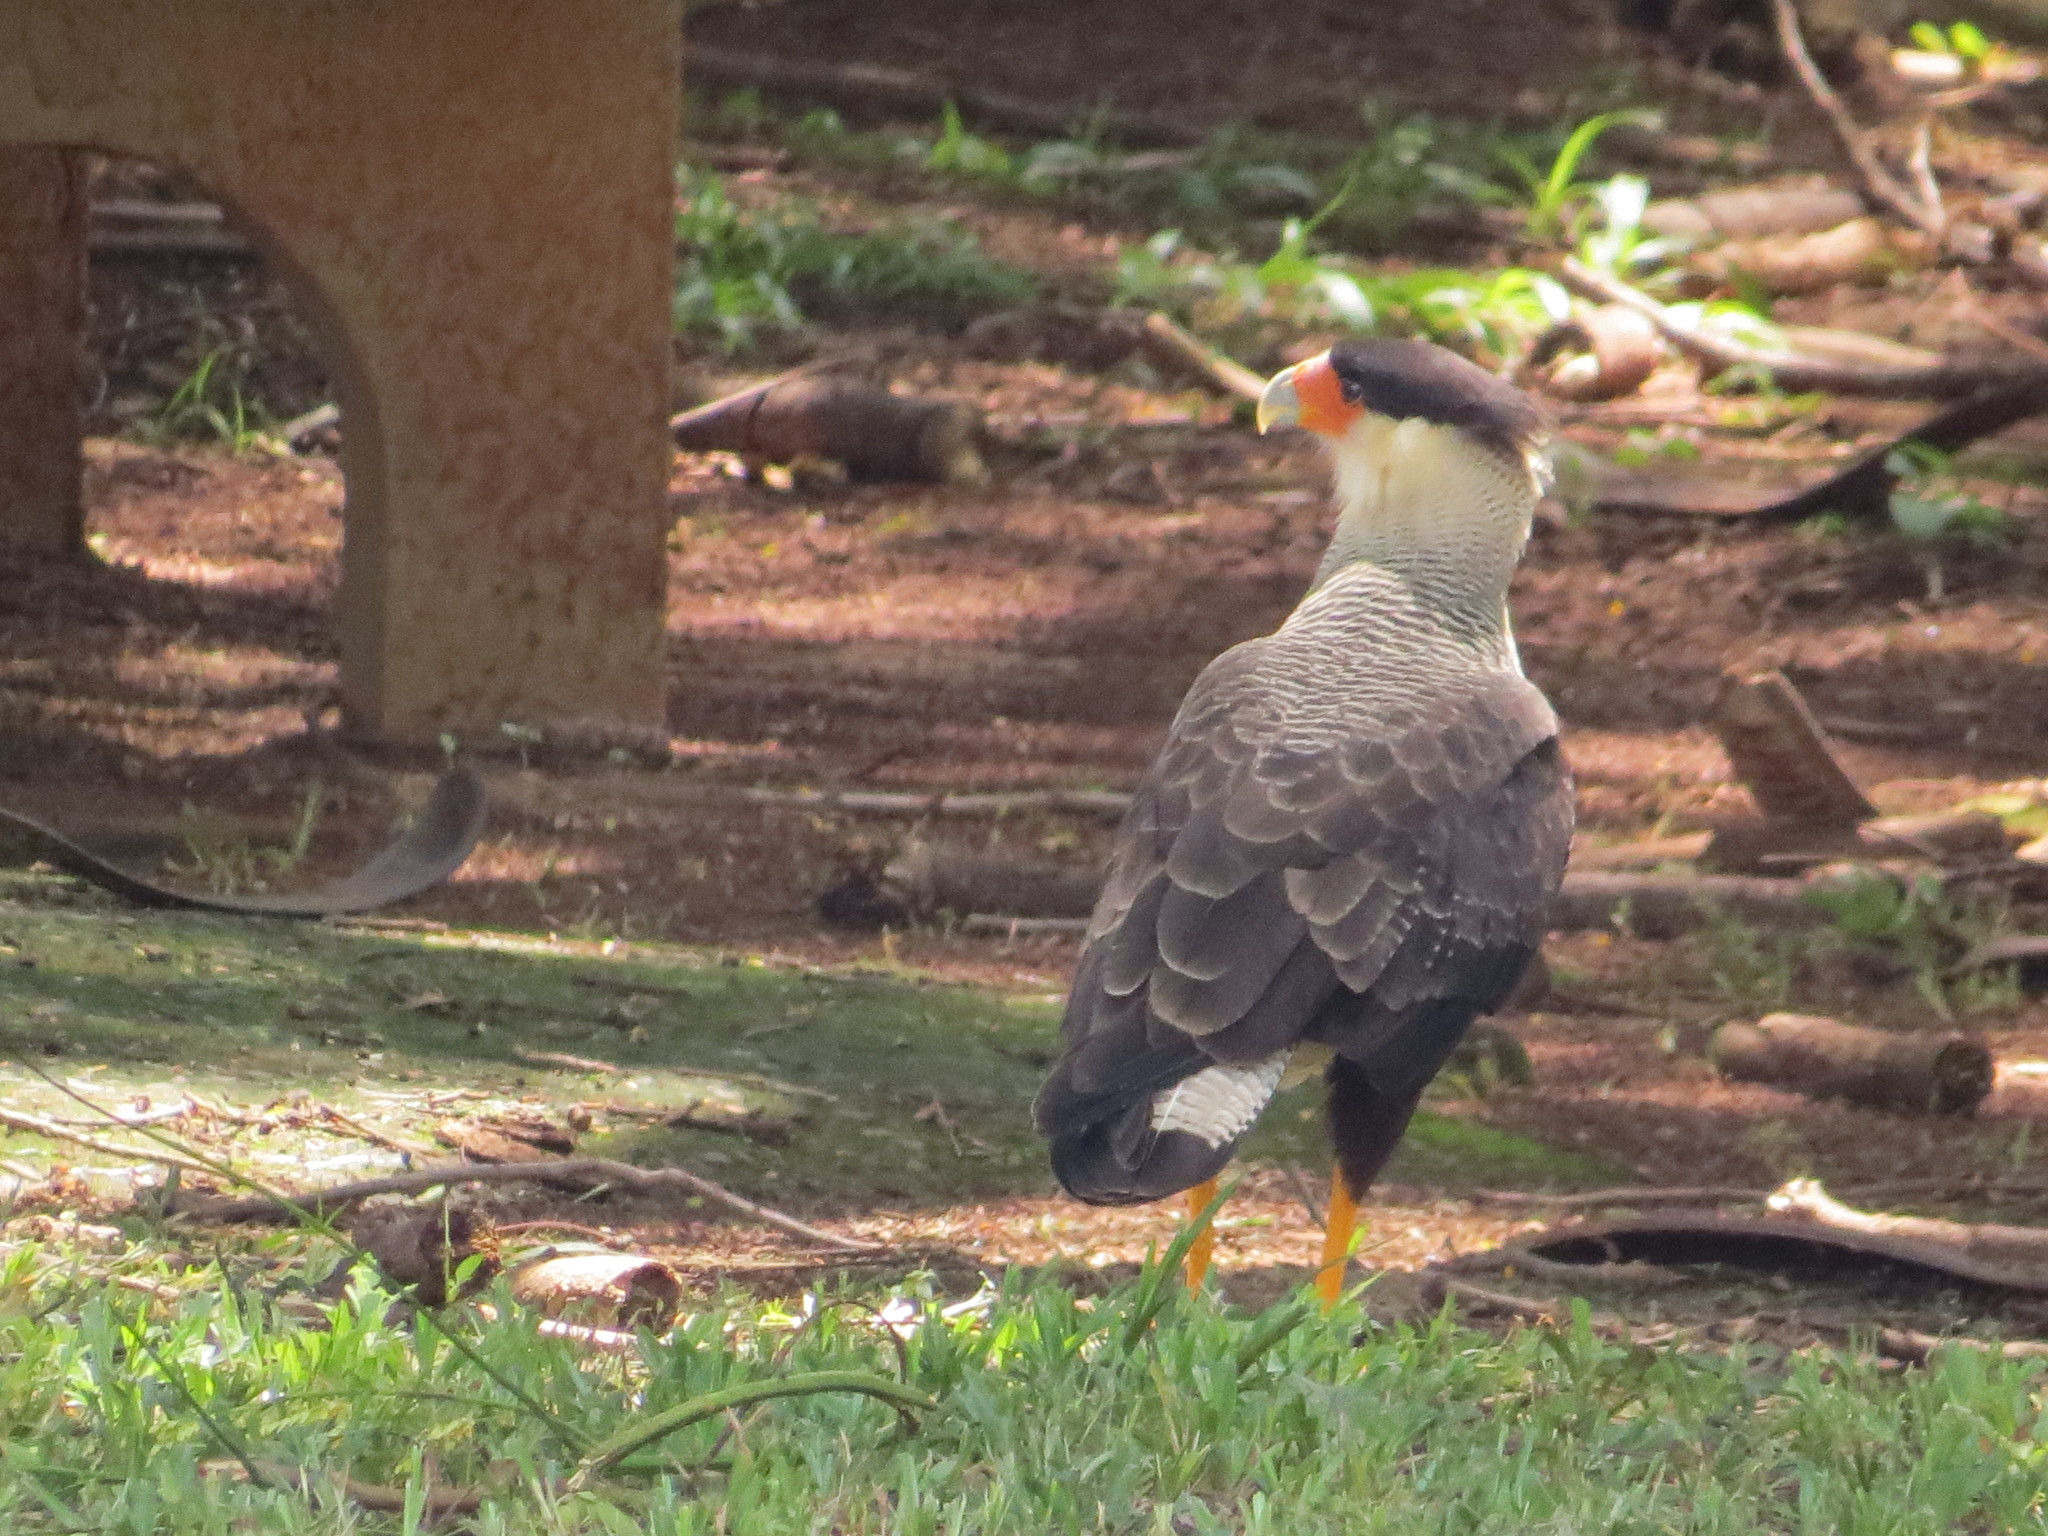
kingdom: Animalia
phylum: Chordata
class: Aves
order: Falconiformes
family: Falconidae
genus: Caracara
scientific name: Caracara plancus
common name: Southern caracara
